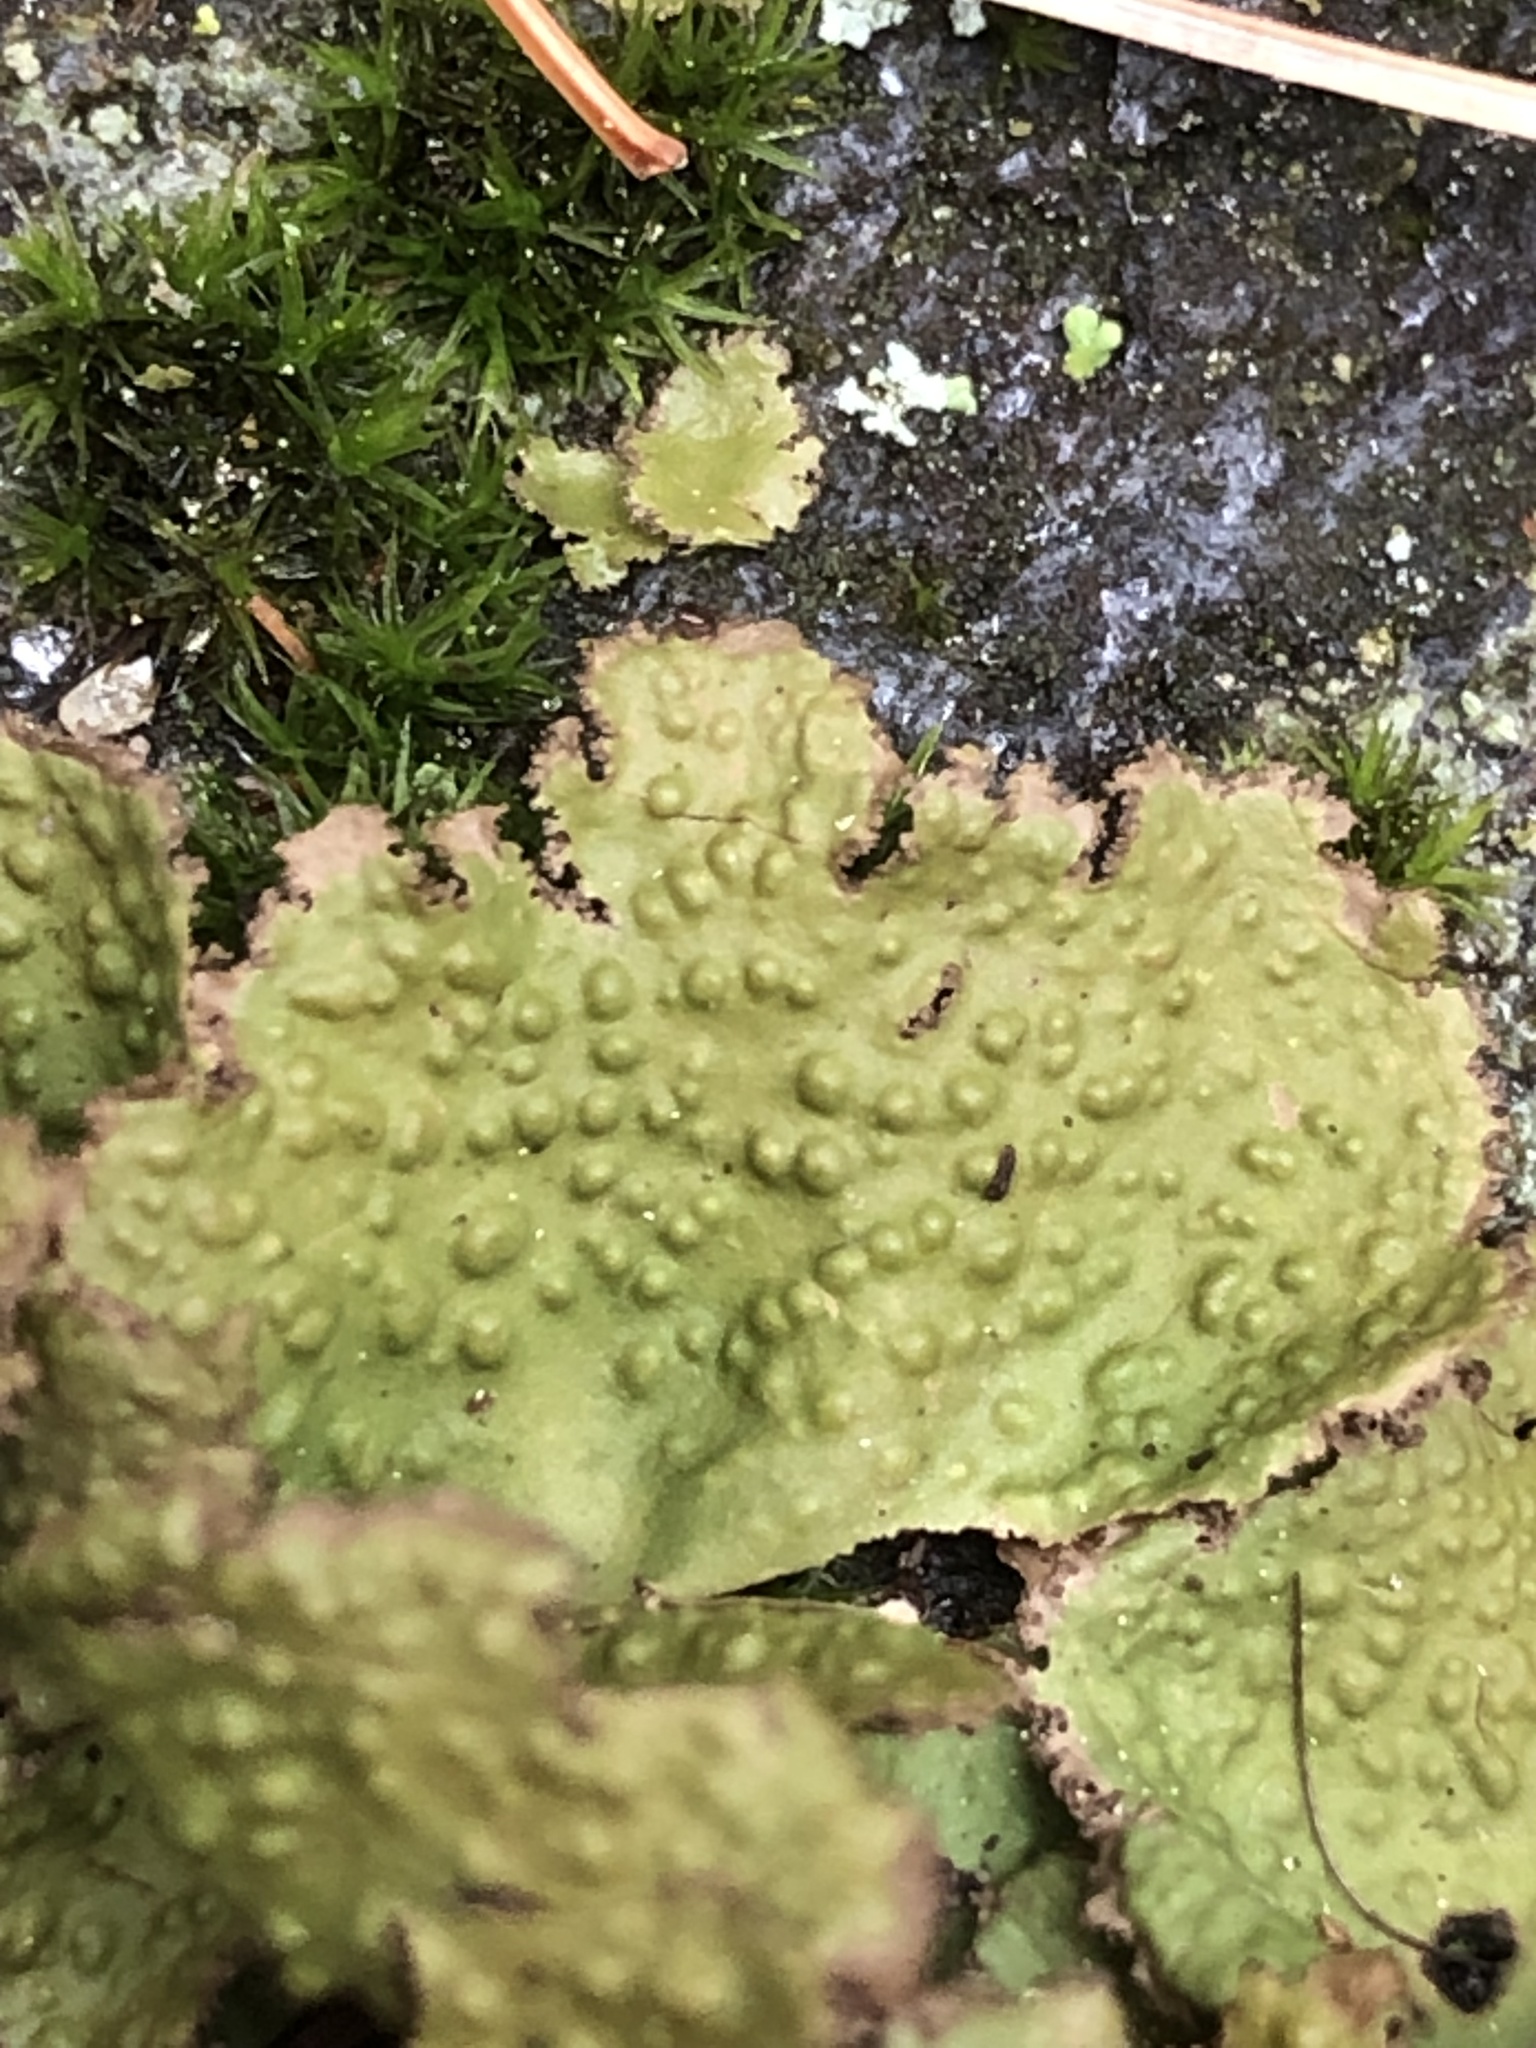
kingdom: Fungi
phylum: Ascomycota
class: Lecanoromycetes
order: Umbilicariales
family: Umbilicariaceae
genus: Lasallia
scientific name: Lasallia pensylvanica
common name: Blackened toadskin lichen
